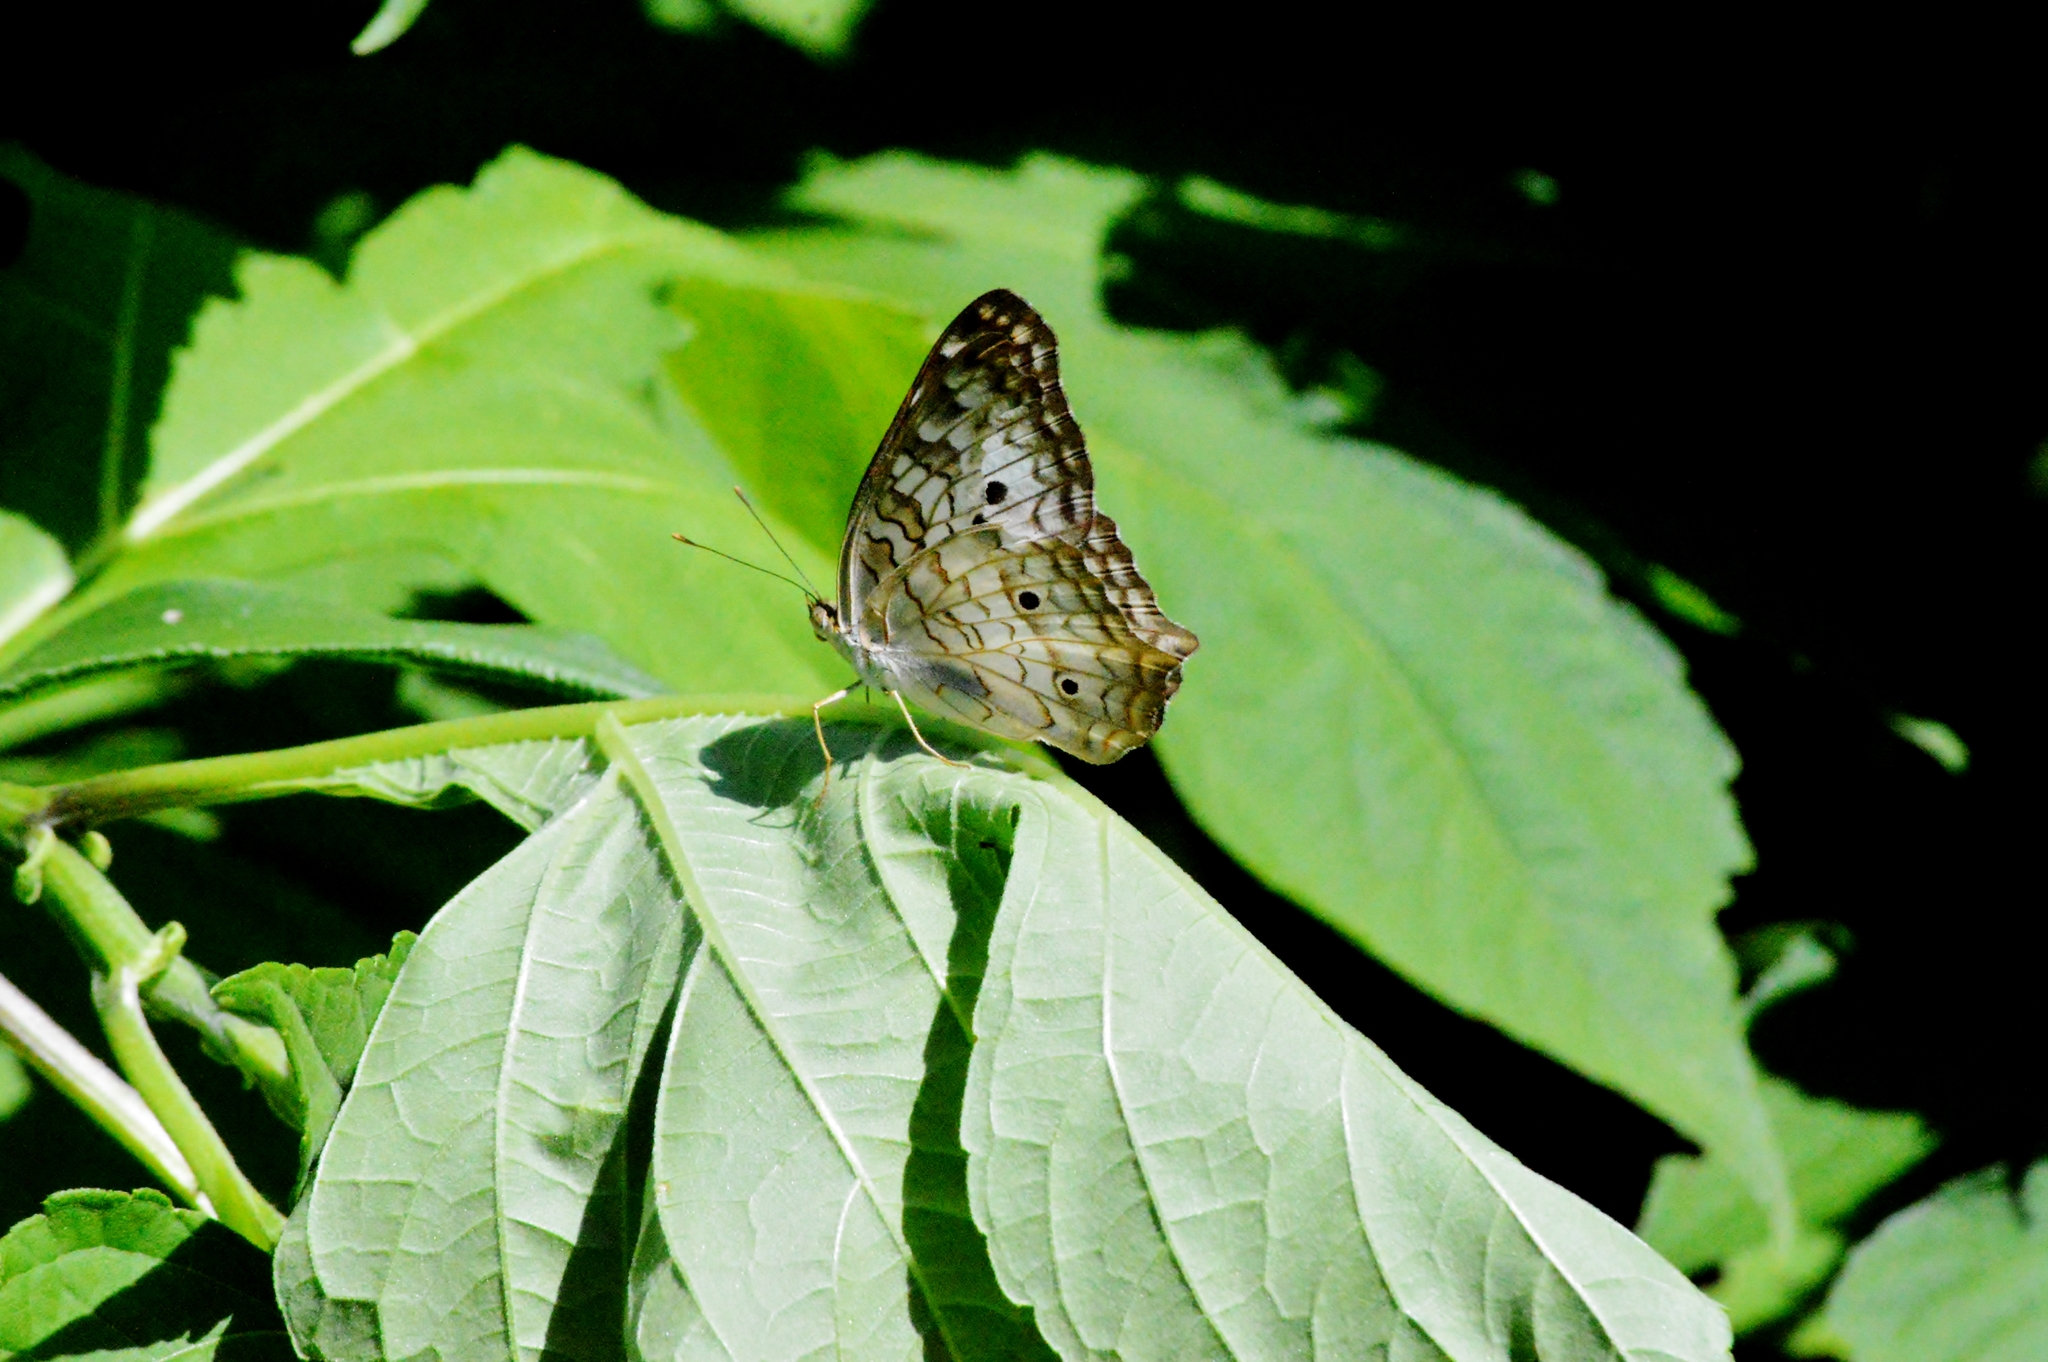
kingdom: Animalia
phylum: Arthropoda
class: Insecta
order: Lepidoptera
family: Nymphalidae
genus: Anartia
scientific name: Anartia jatrophae
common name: White peacock
